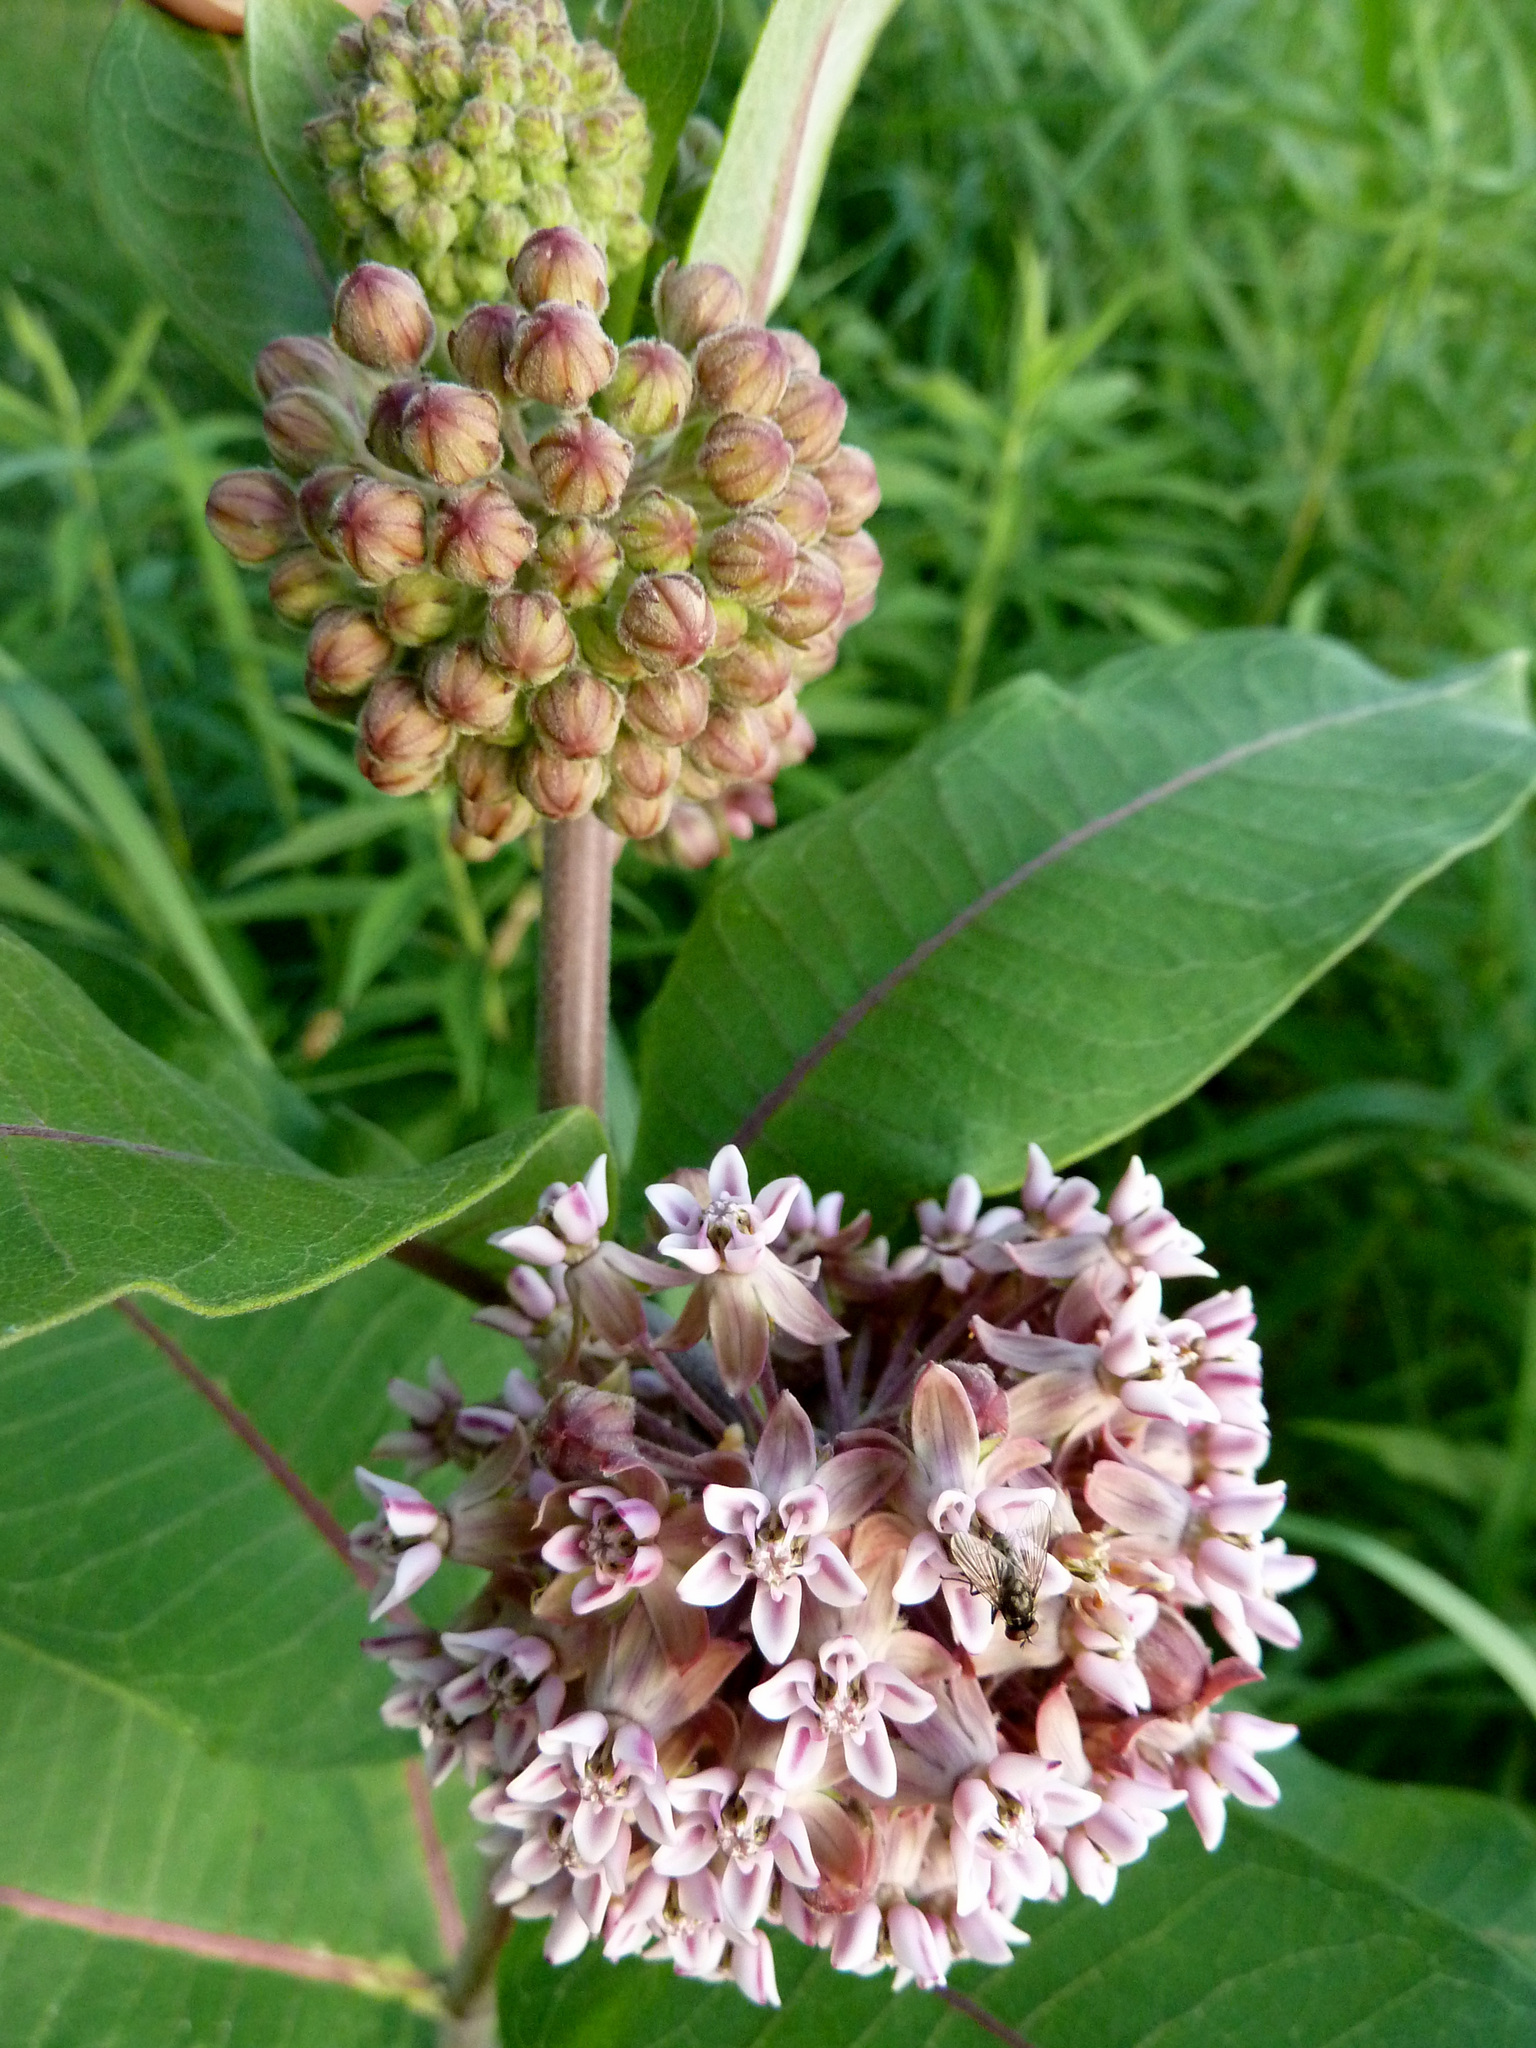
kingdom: Plantae
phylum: Tracheophyta
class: Magnoliopsida
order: Gentianales
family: Apocynaceae
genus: Asclepias
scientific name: Asclepias syriaca
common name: Common milkweed
